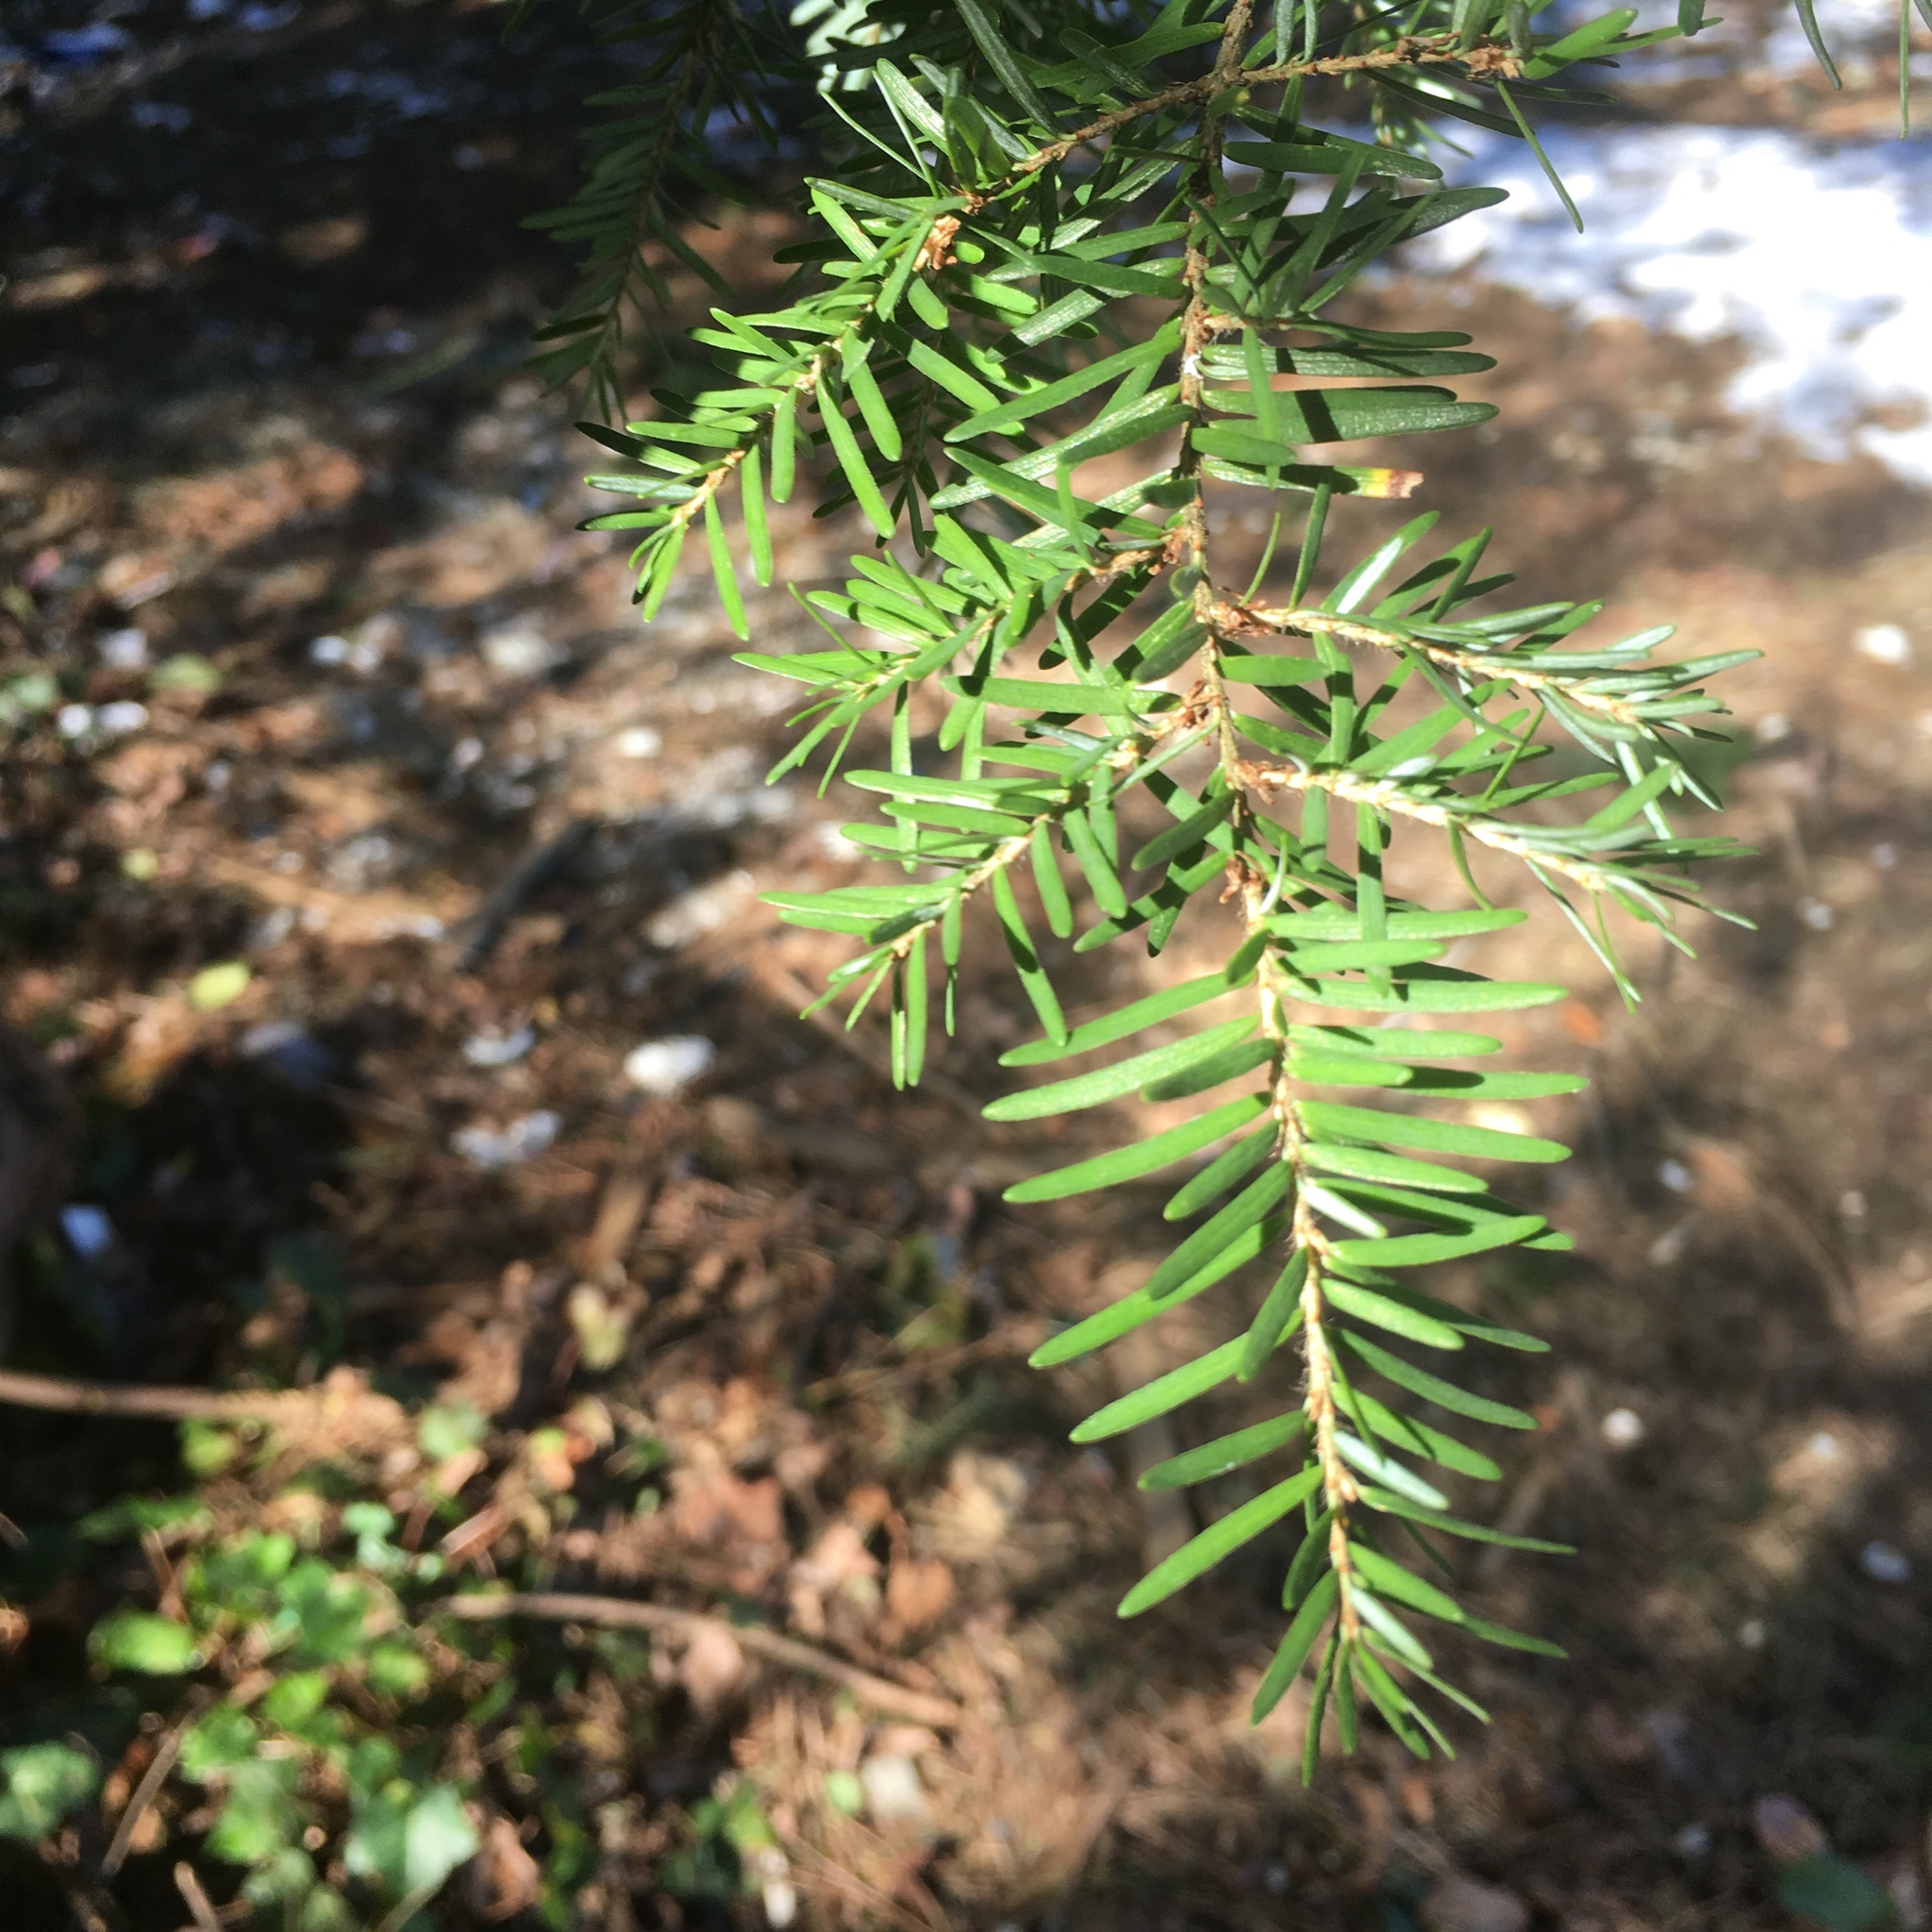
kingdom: Plantae
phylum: Tracheophyta
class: Pinopsida
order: Pinales
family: Pinaceae
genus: Tsuga
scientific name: Tsuga heterophylla
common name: Western hemlock
